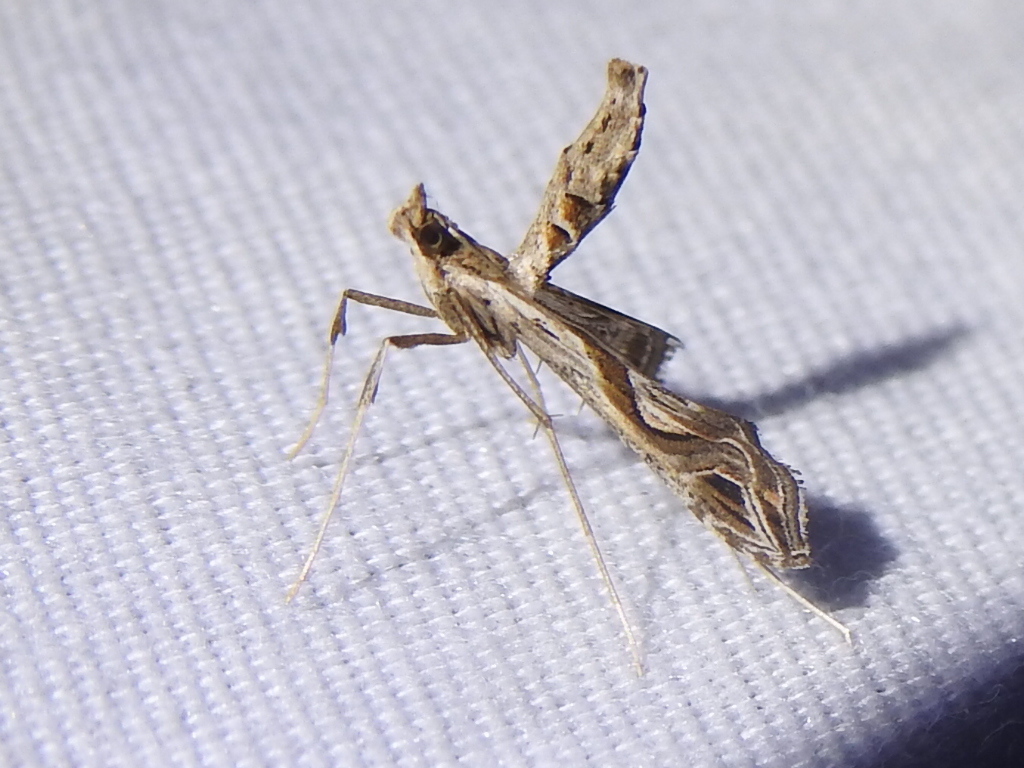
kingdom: Animalia
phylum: Arthropoda
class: Insecta
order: Lepidoptera
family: Crambidae
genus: Lineodes
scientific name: Lineodes integra
